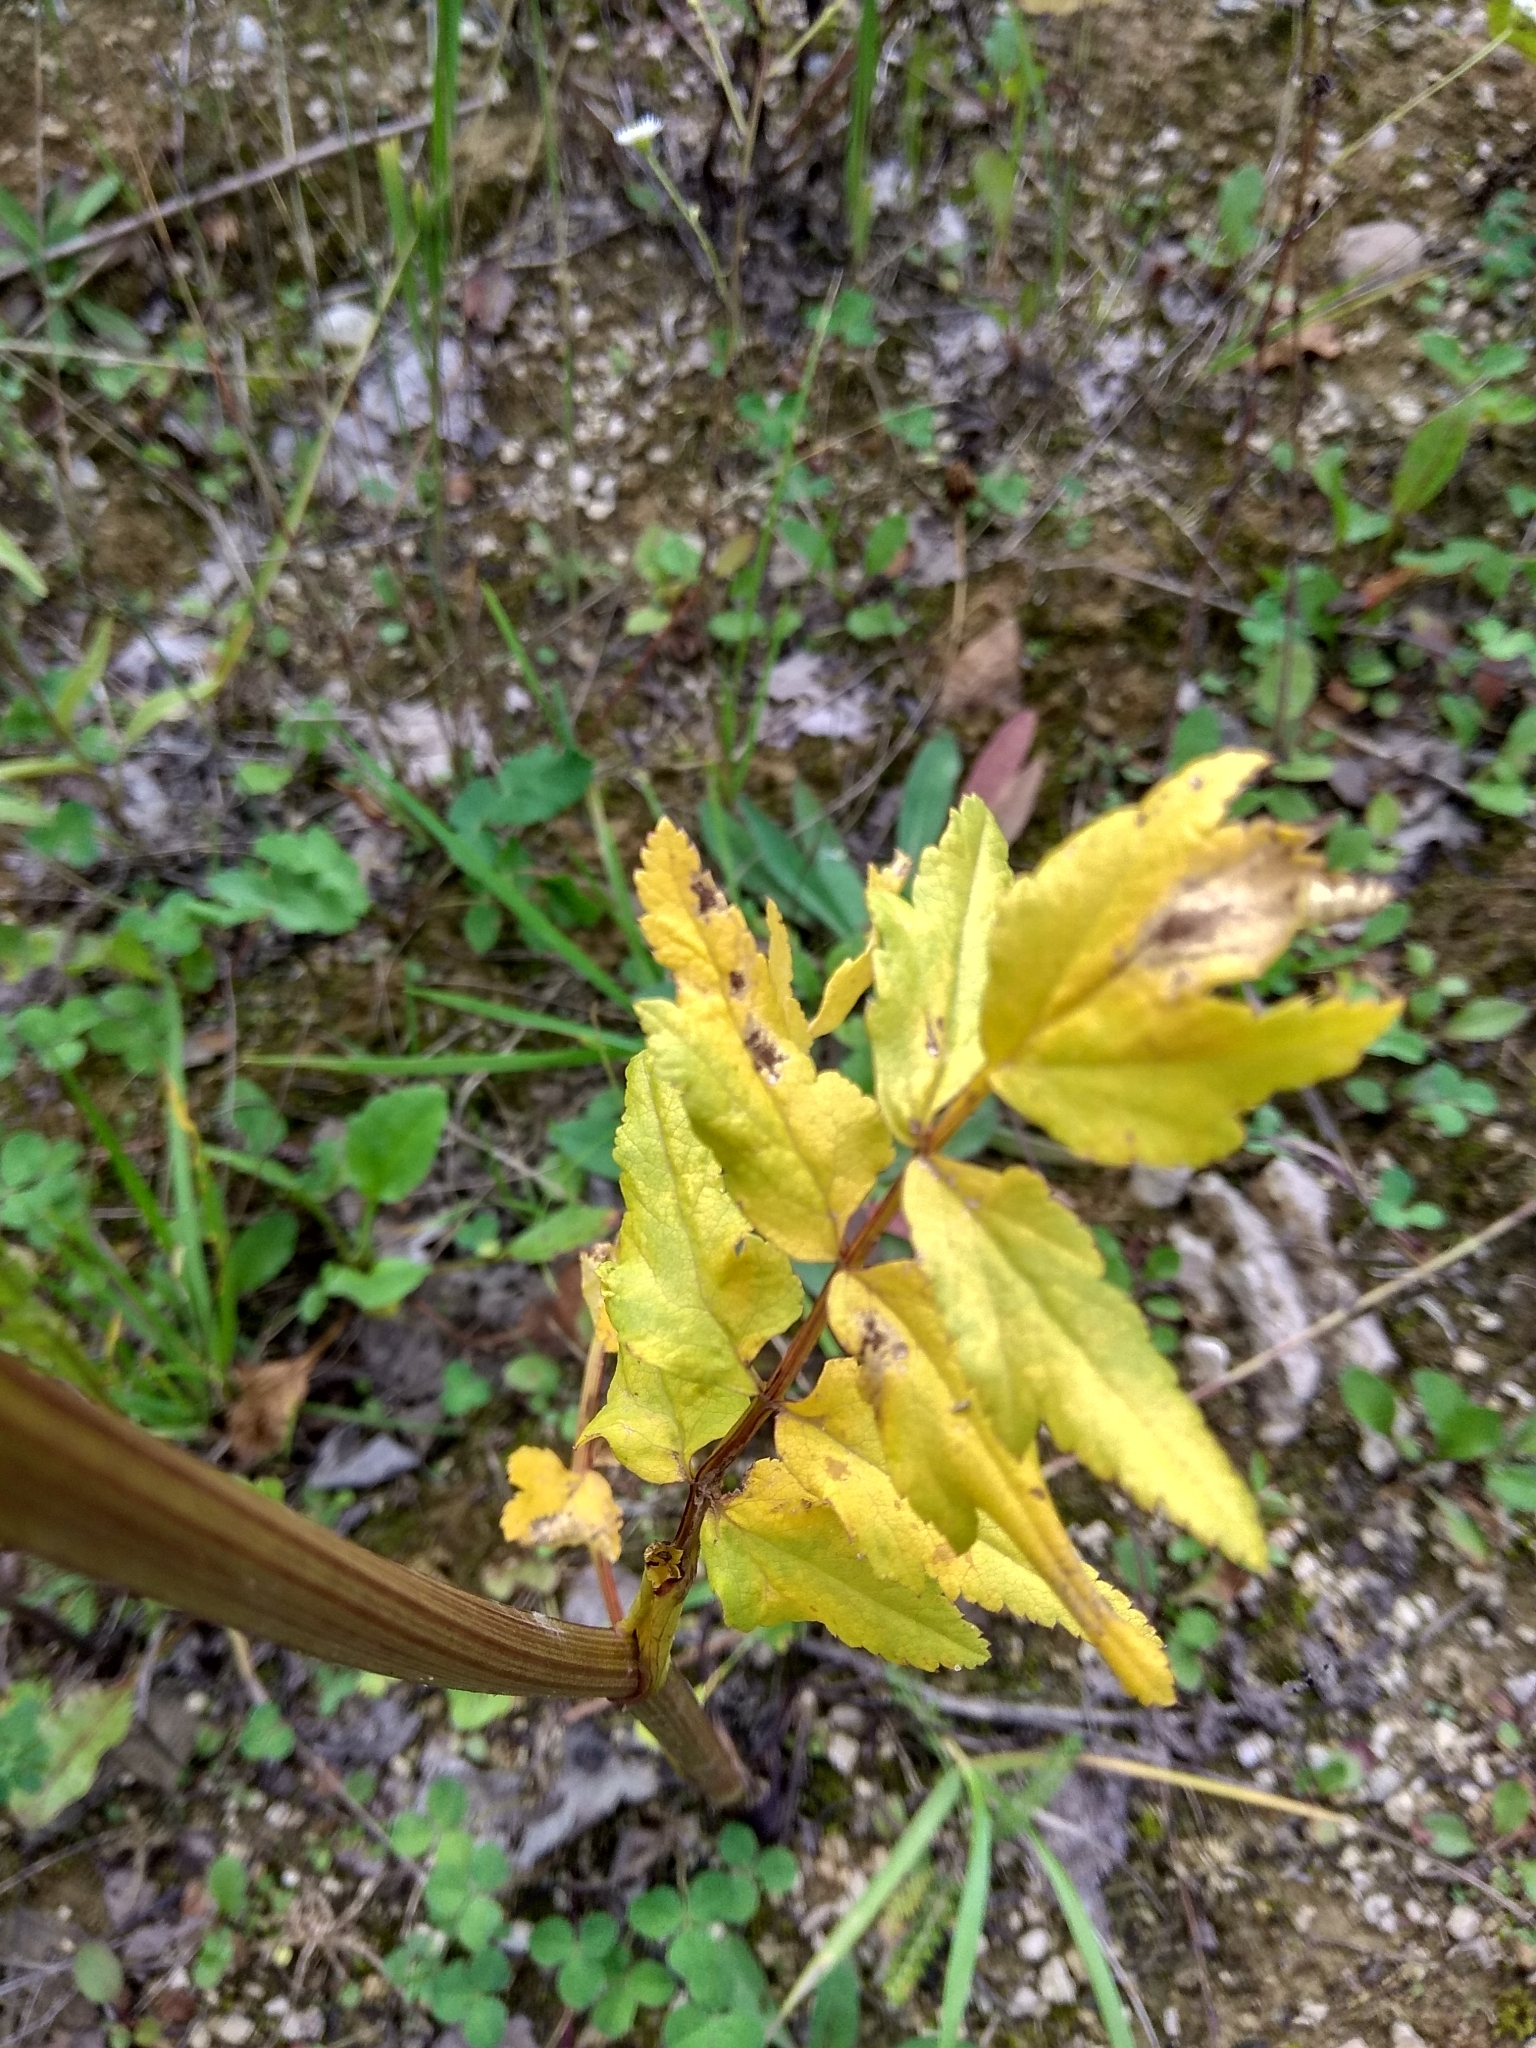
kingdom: Plantae
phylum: Tracheophyta
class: Magnoliopsida
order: Apiales
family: Apiaceae
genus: Pastinaca
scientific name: Pastinaca sativa
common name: Wild parsnip
